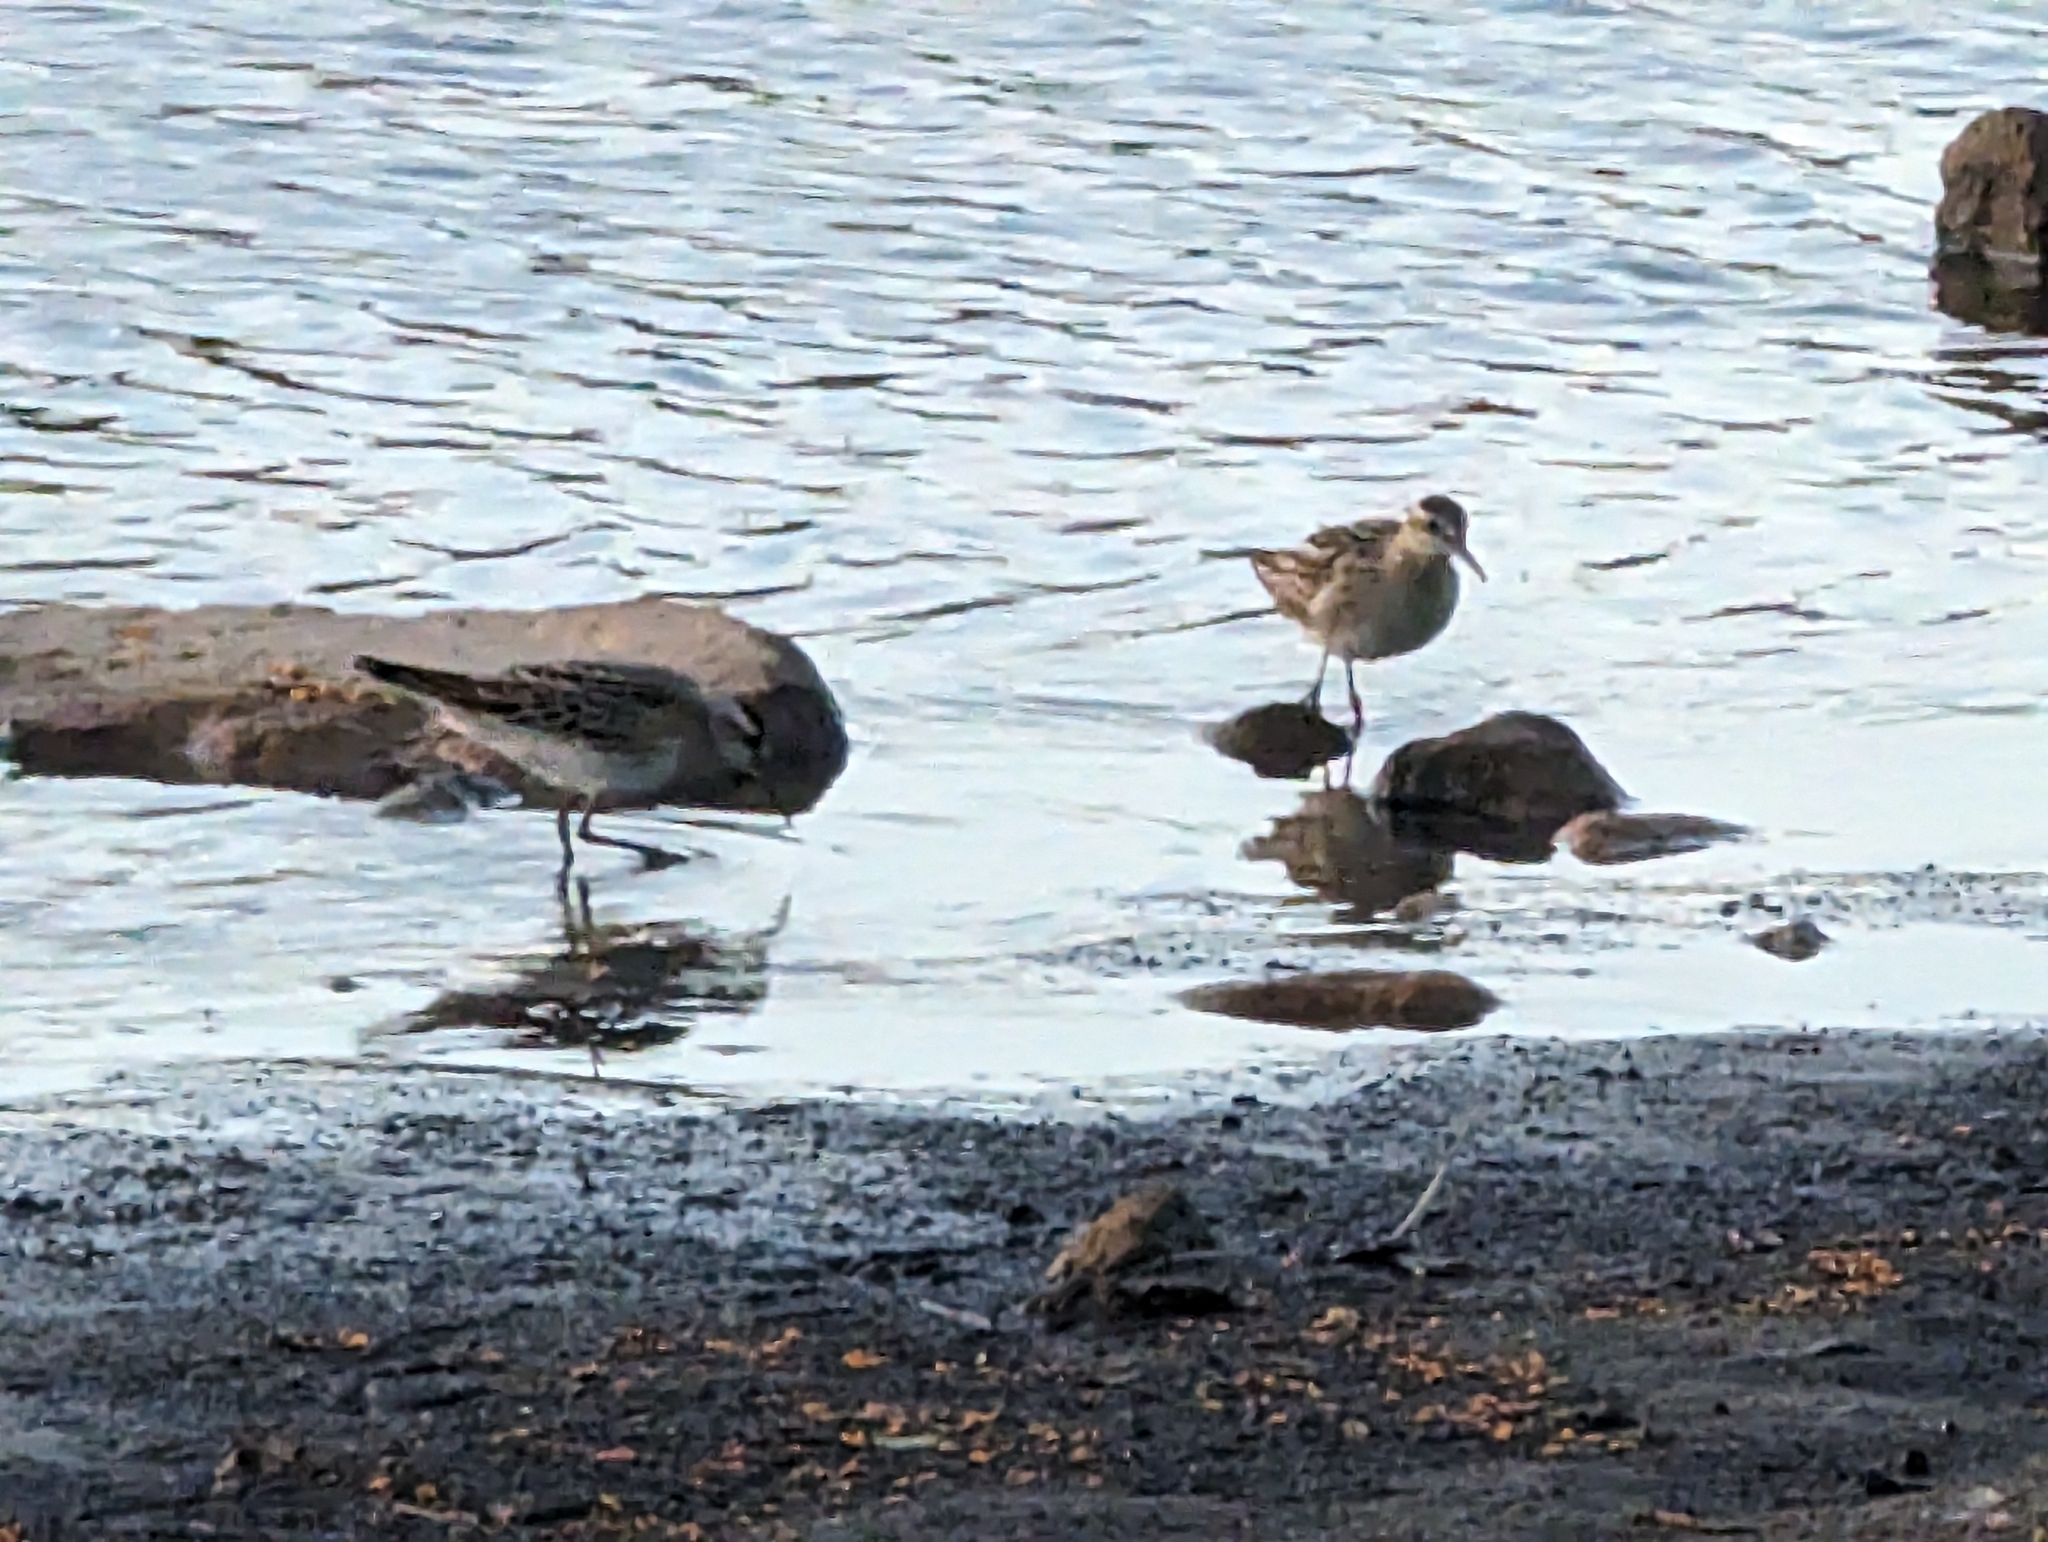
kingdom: Animalia
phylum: Chordata
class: Aves
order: Charadriiformes
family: Scolopacidae
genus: Calidris
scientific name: Calidris acuminata
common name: Sharp-tailed sandpiper
